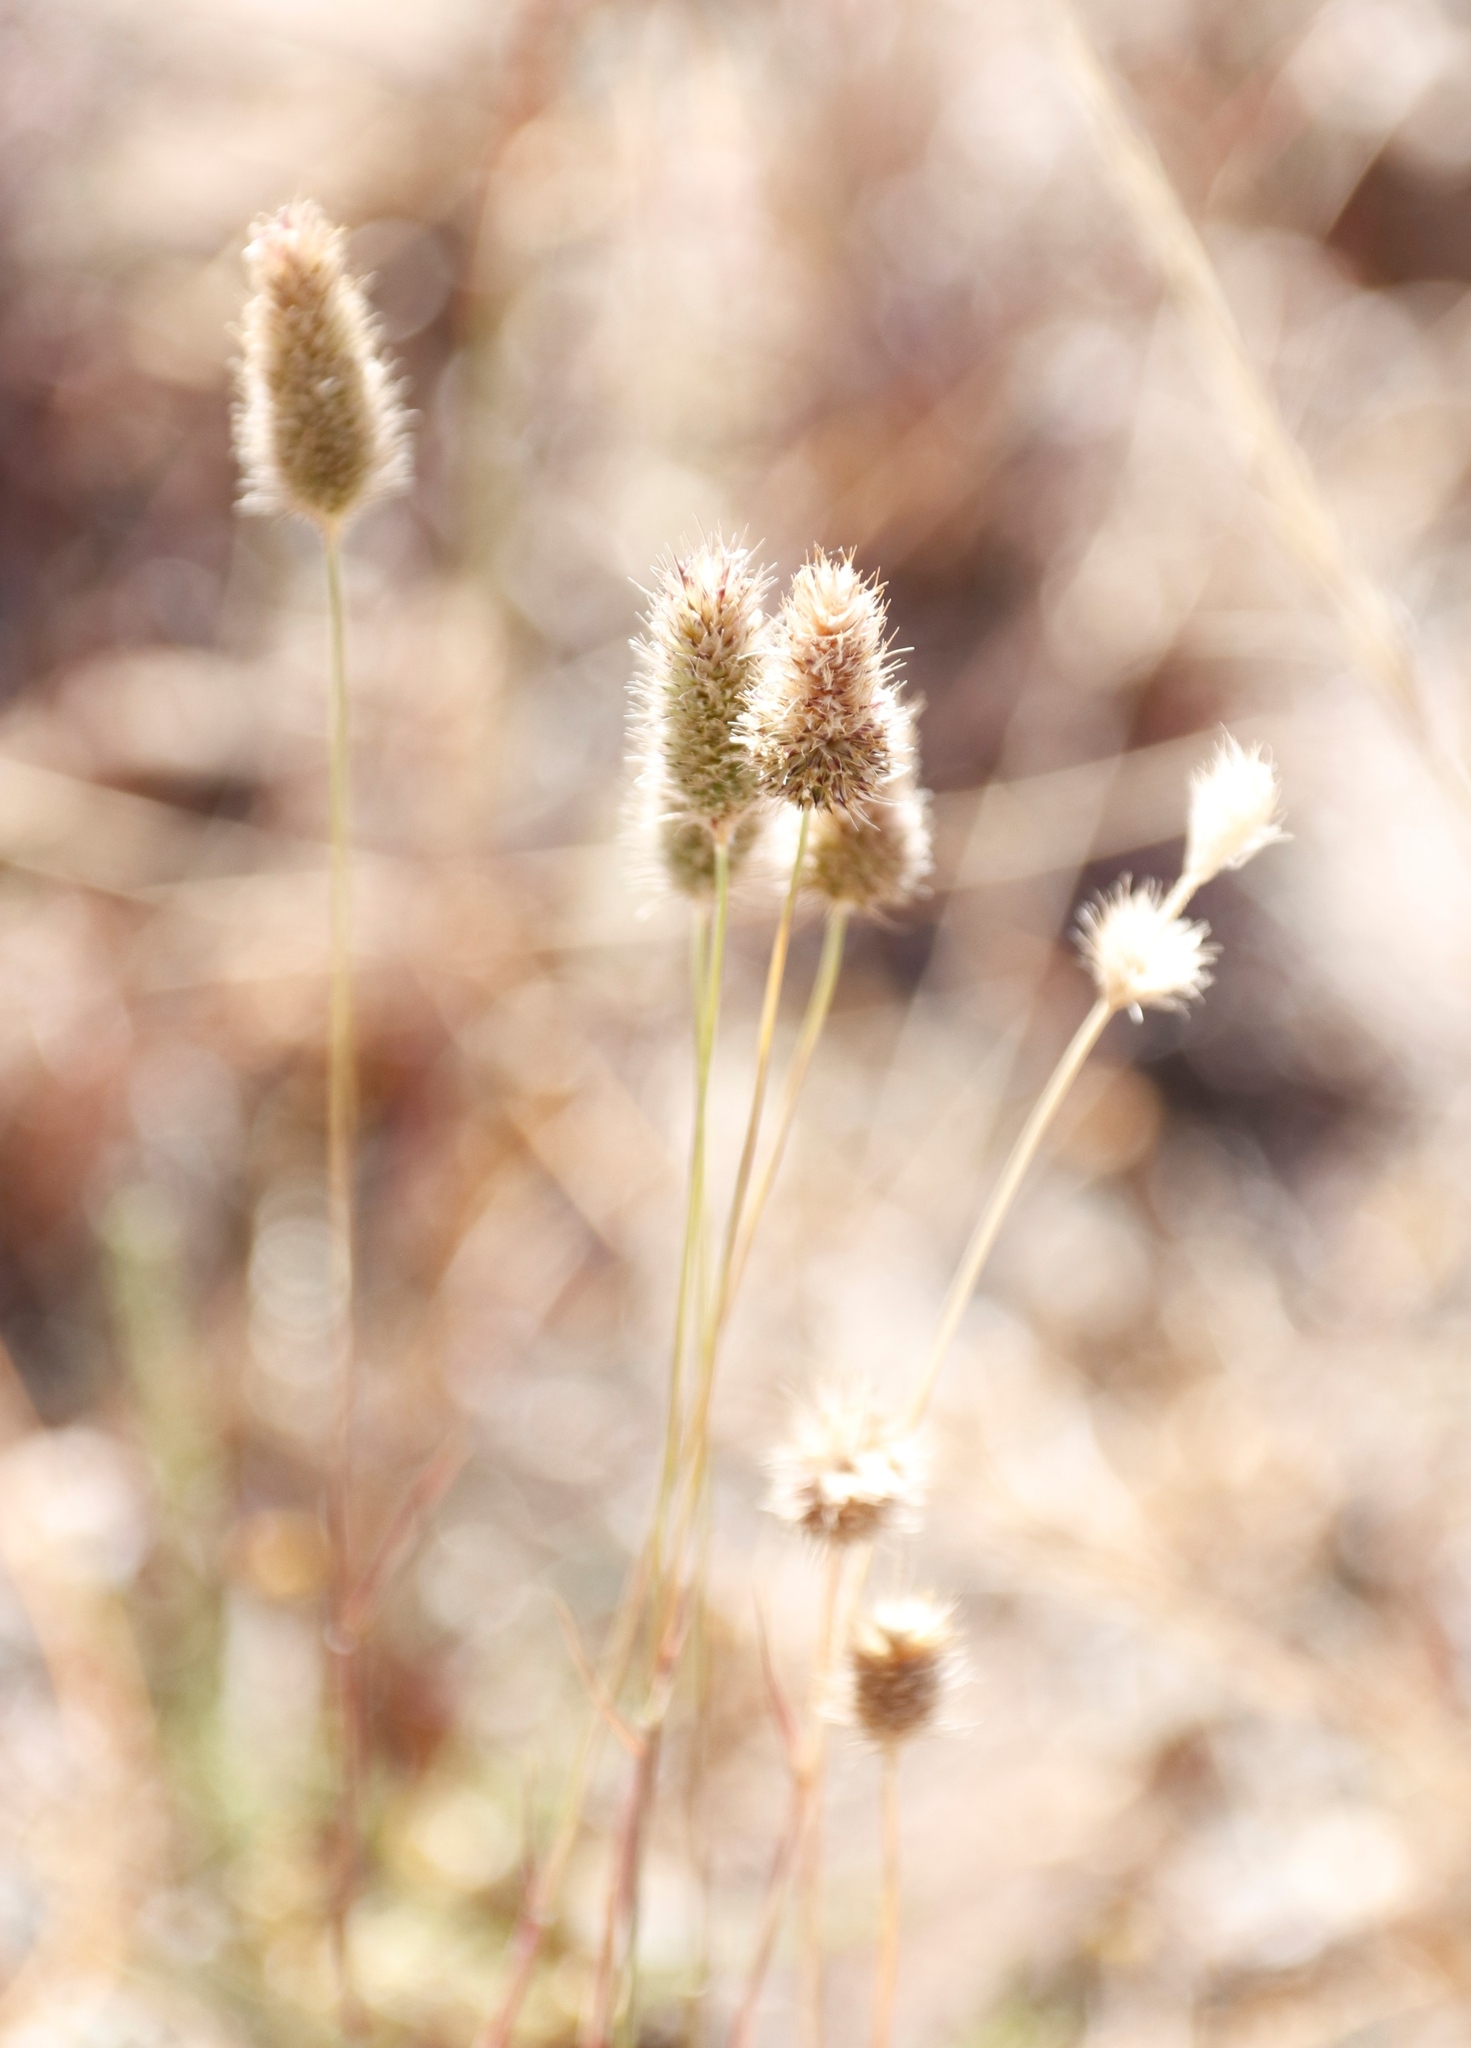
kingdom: Plantae
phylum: Tracheophyta
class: Liliopsida
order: Poales
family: Poaceae
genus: Fingerhuthia
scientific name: Fingerhuthia africana
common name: Zulu fescue
